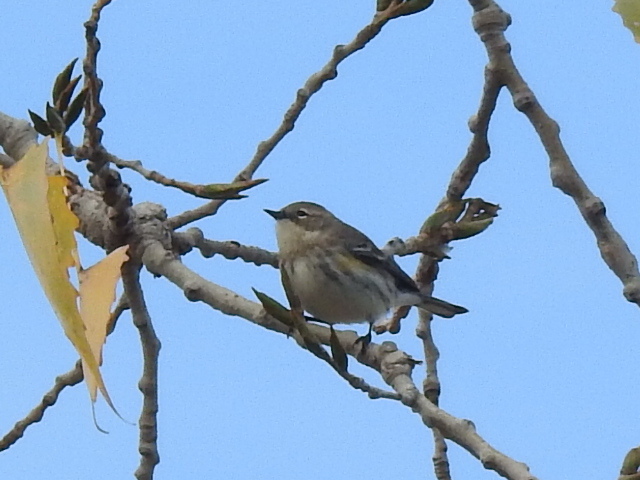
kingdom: Animalia
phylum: Chordata
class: Aves
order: Passeriformes
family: Parulidae
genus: Setophaga
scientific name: Setophaga coronata
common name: Myrtle warbler
